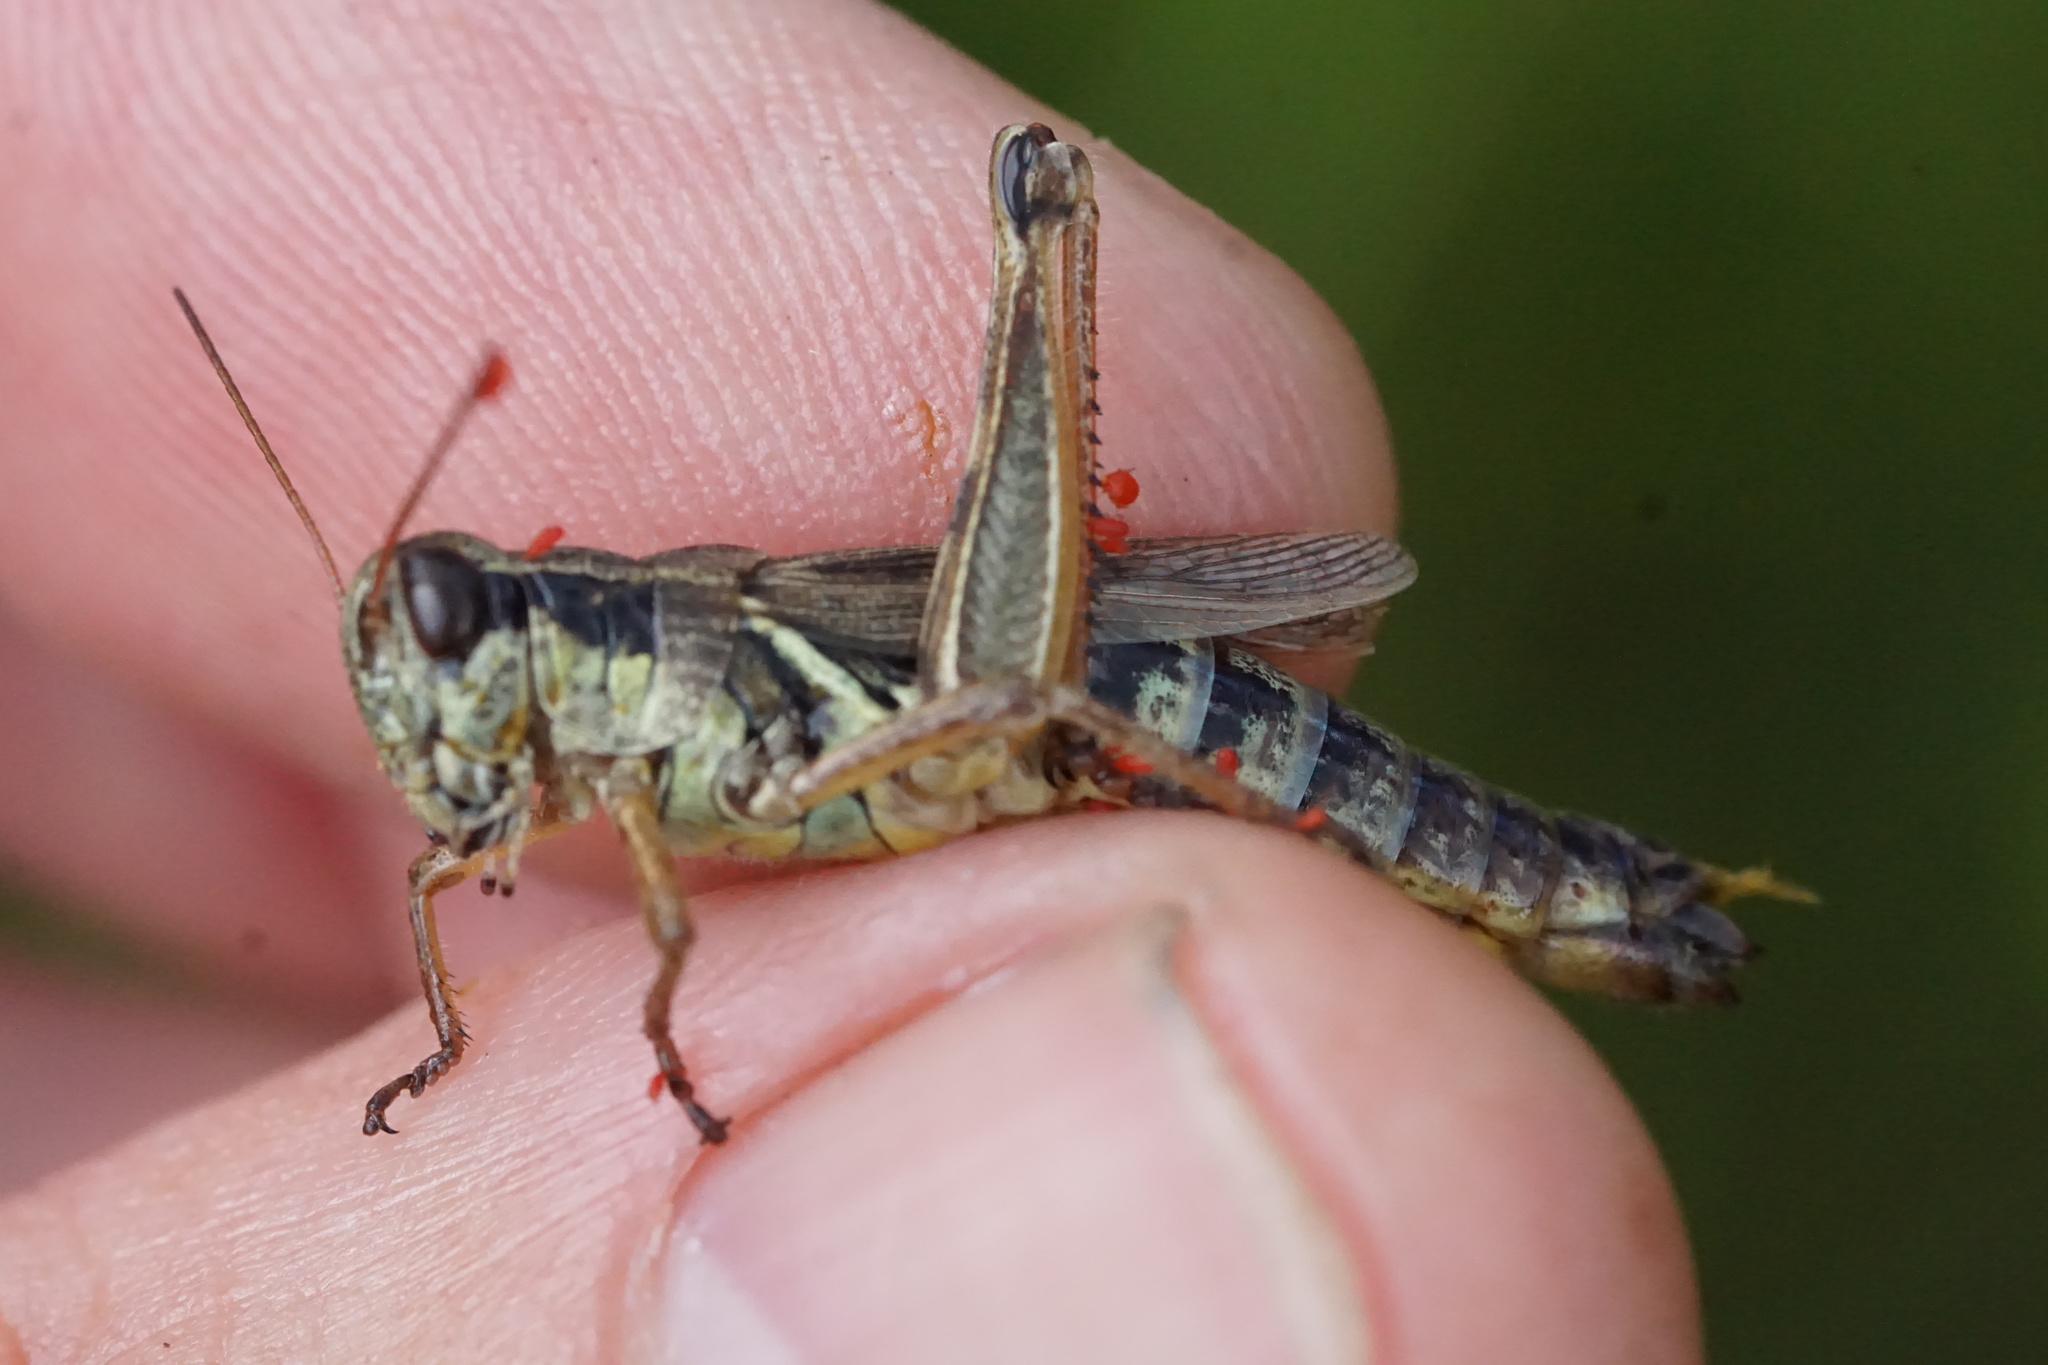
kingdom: Animalia
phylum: Arthropoda
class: Insecta
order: Orthoptera
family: Acrididae
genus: Melanoplus
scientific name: Melanoplus borealis
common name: Northern grasshopper
